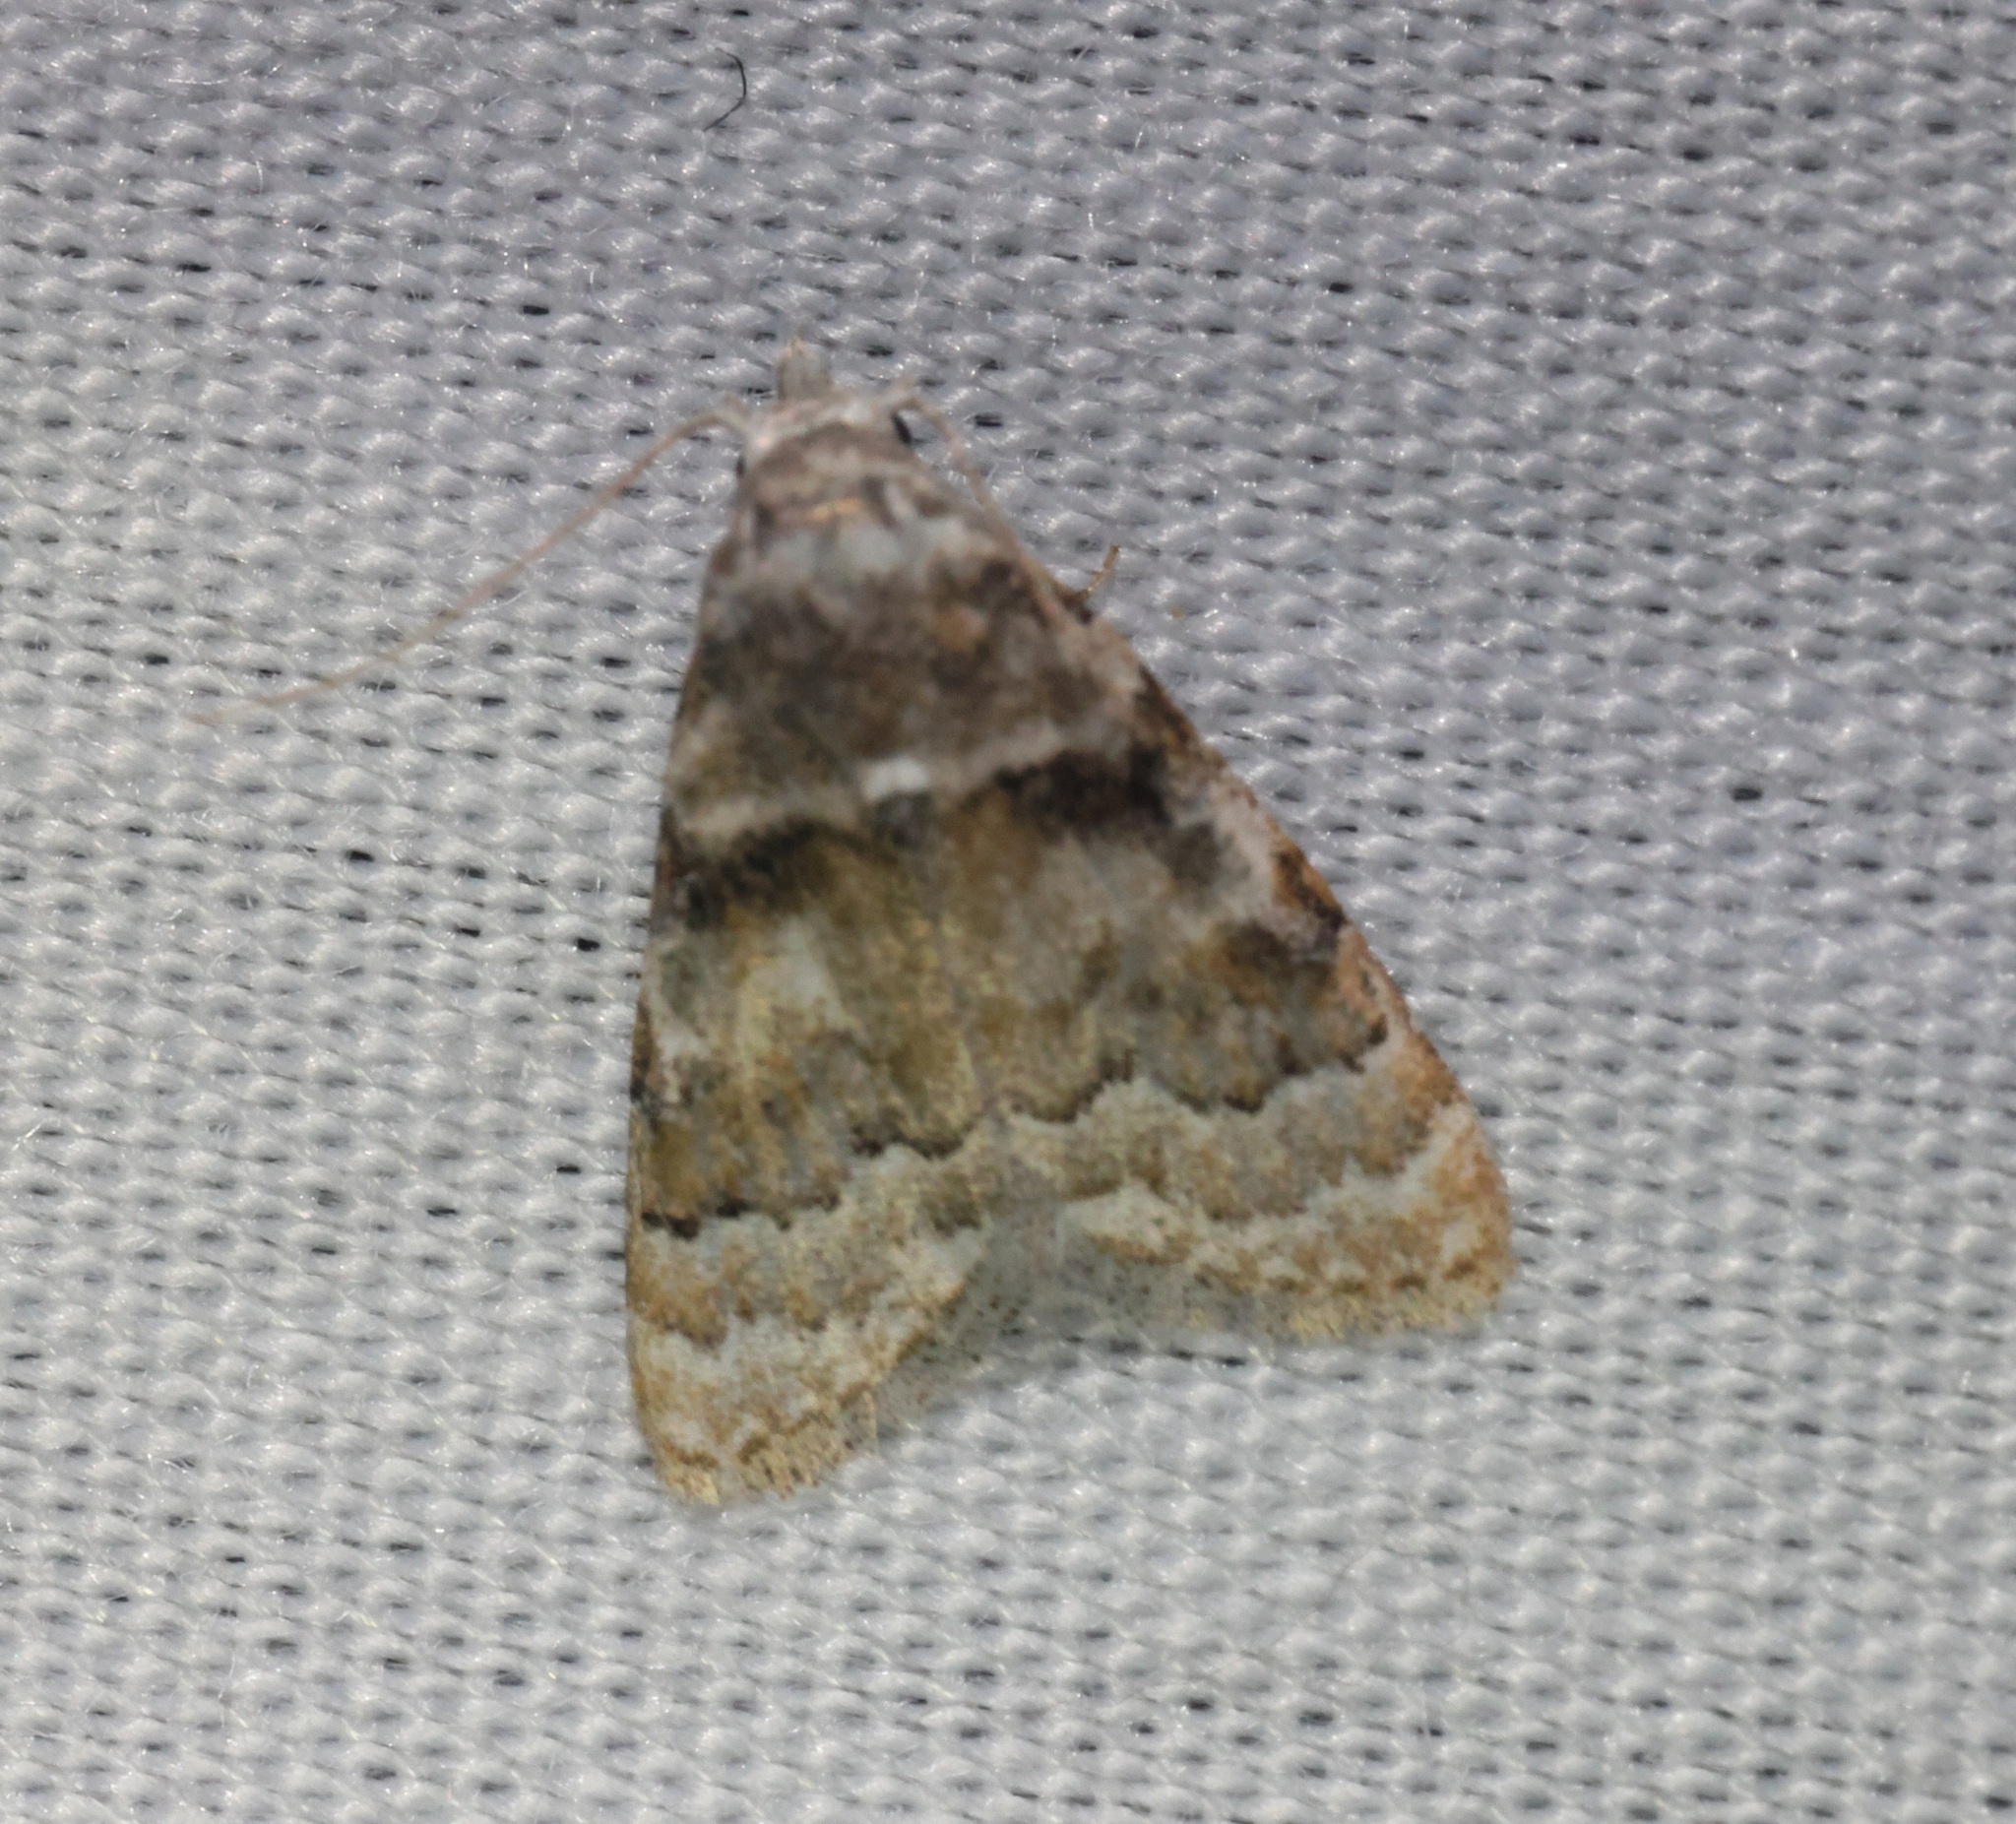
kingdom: Animalia
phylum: Arthropoda
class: Insecta
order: Lepidoptera
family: Nolidae
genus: Nola
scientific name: Nola bifascialis
